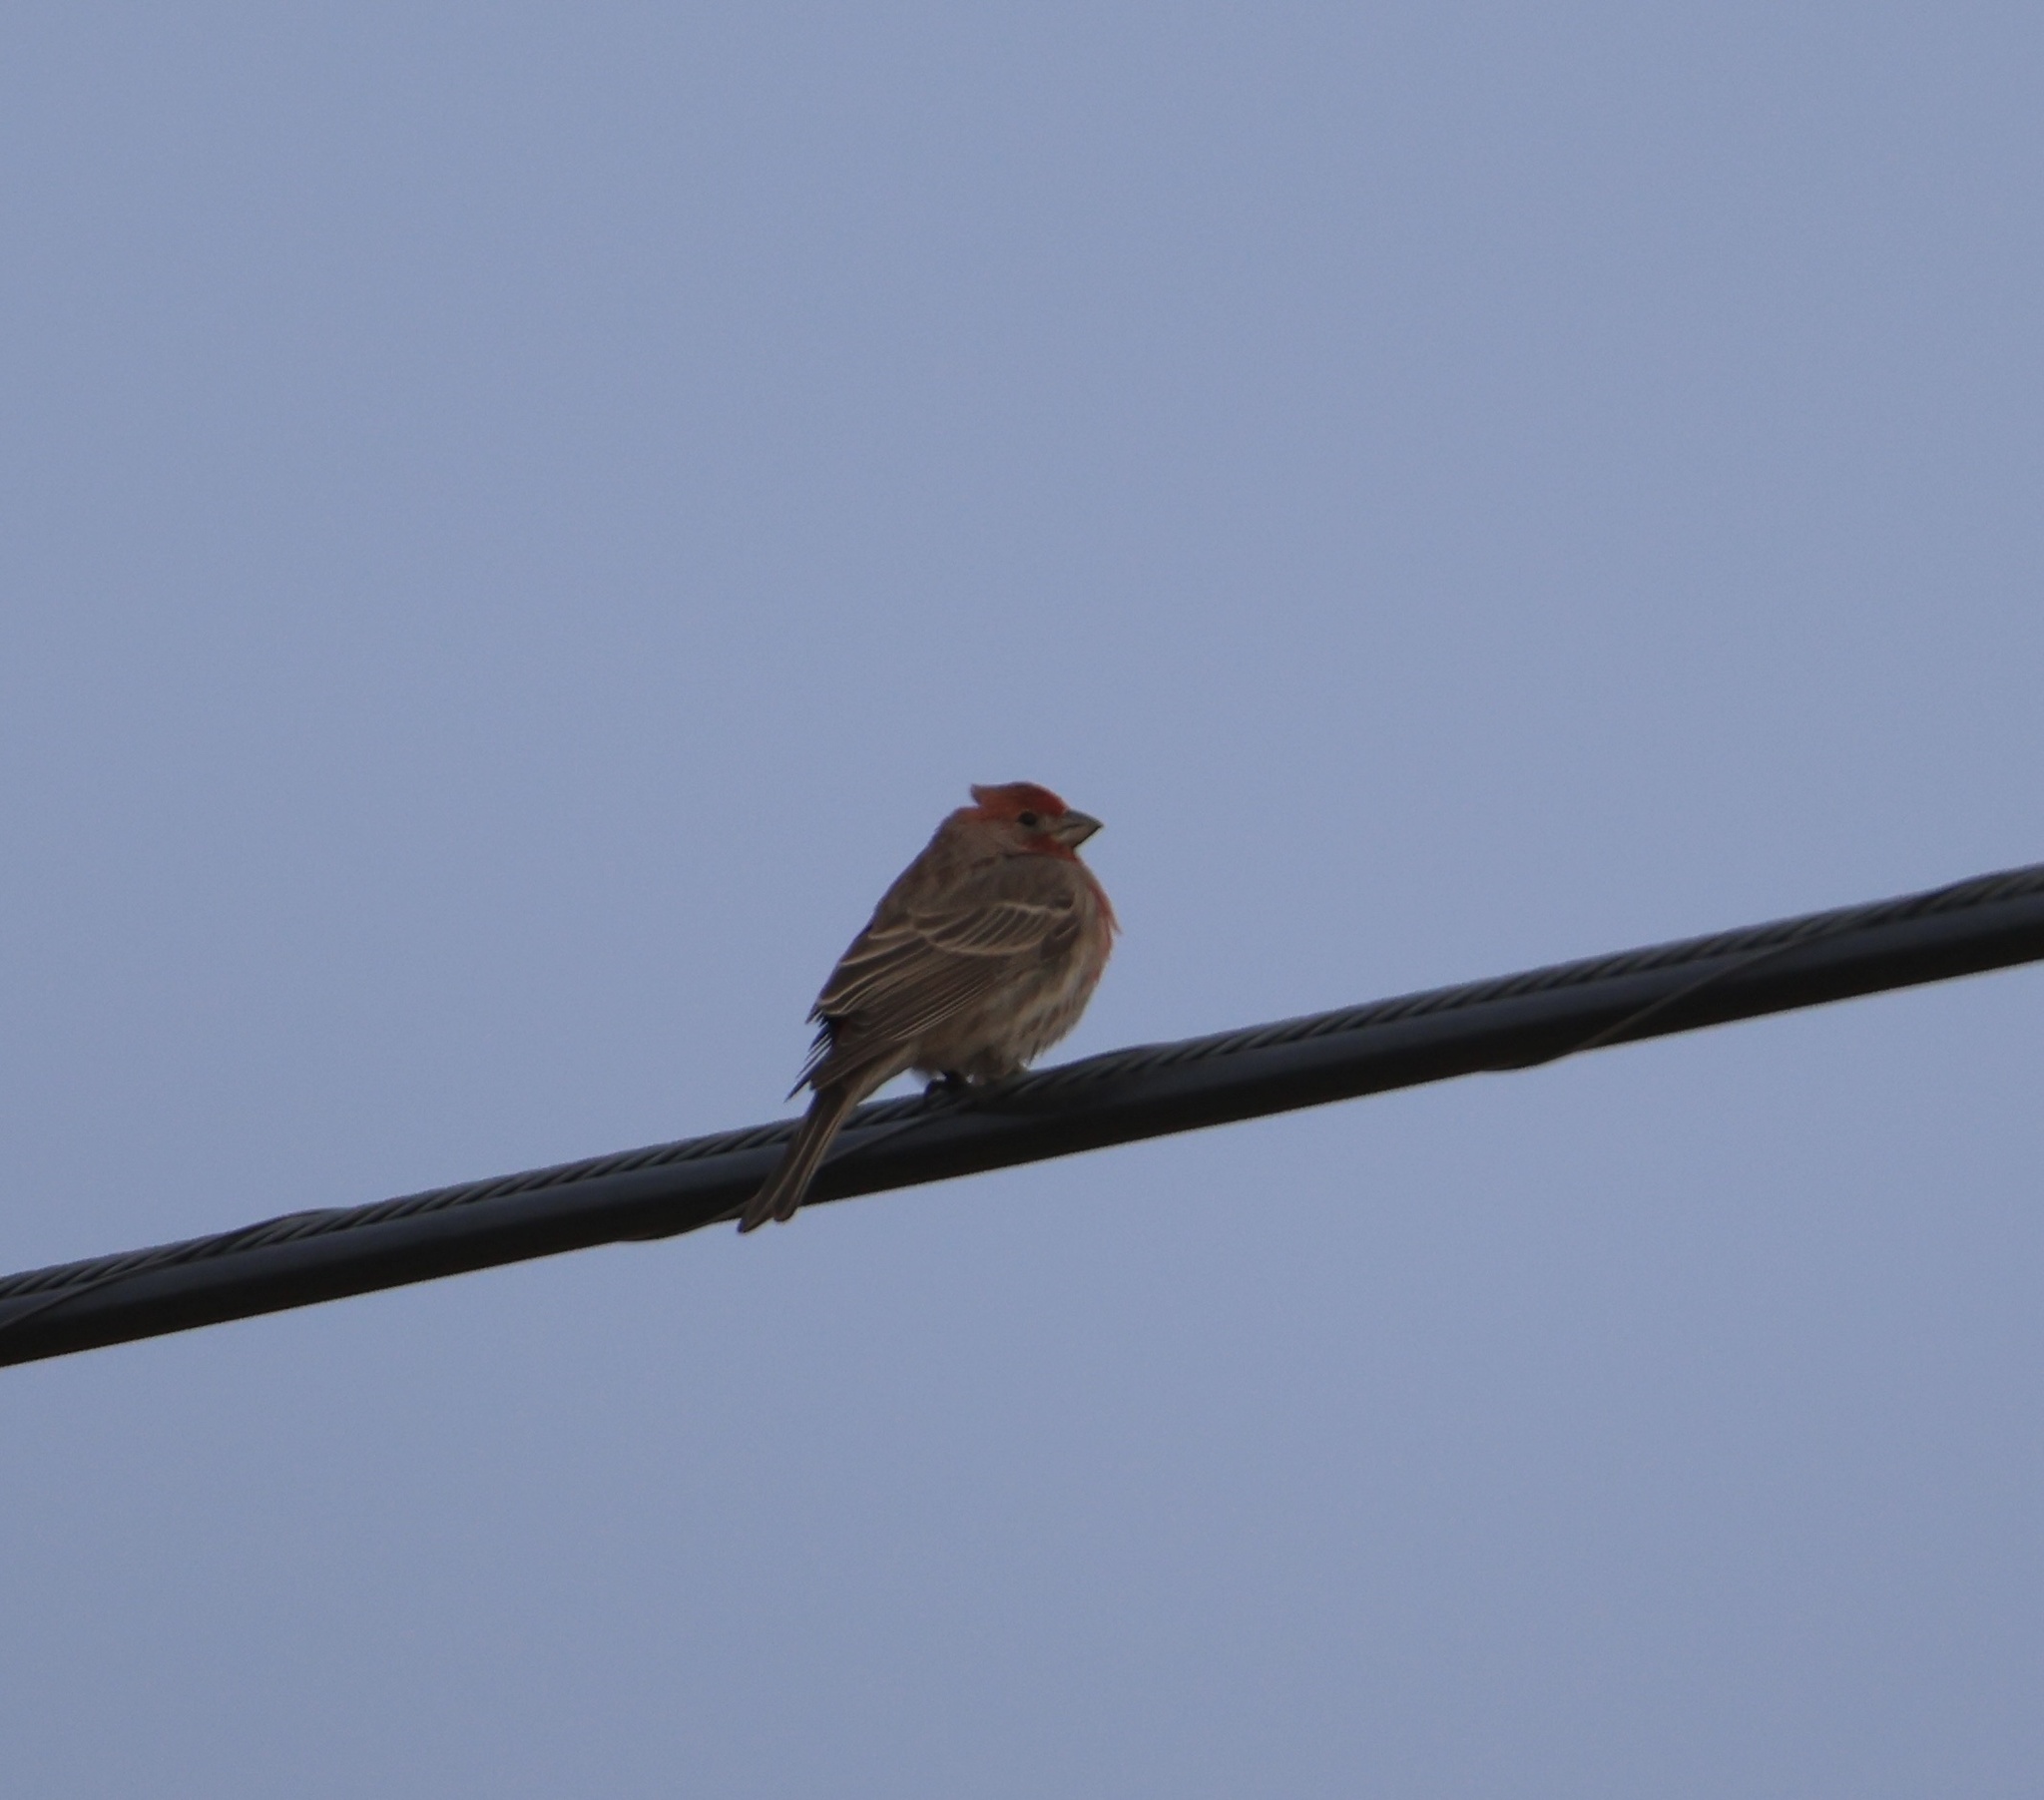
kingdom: Animalia
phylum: Chordata
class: Aves
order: Passeriformes
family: Fringillidae
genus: Haemorhous
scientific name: Haemorhous mexicanus
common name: House finch
